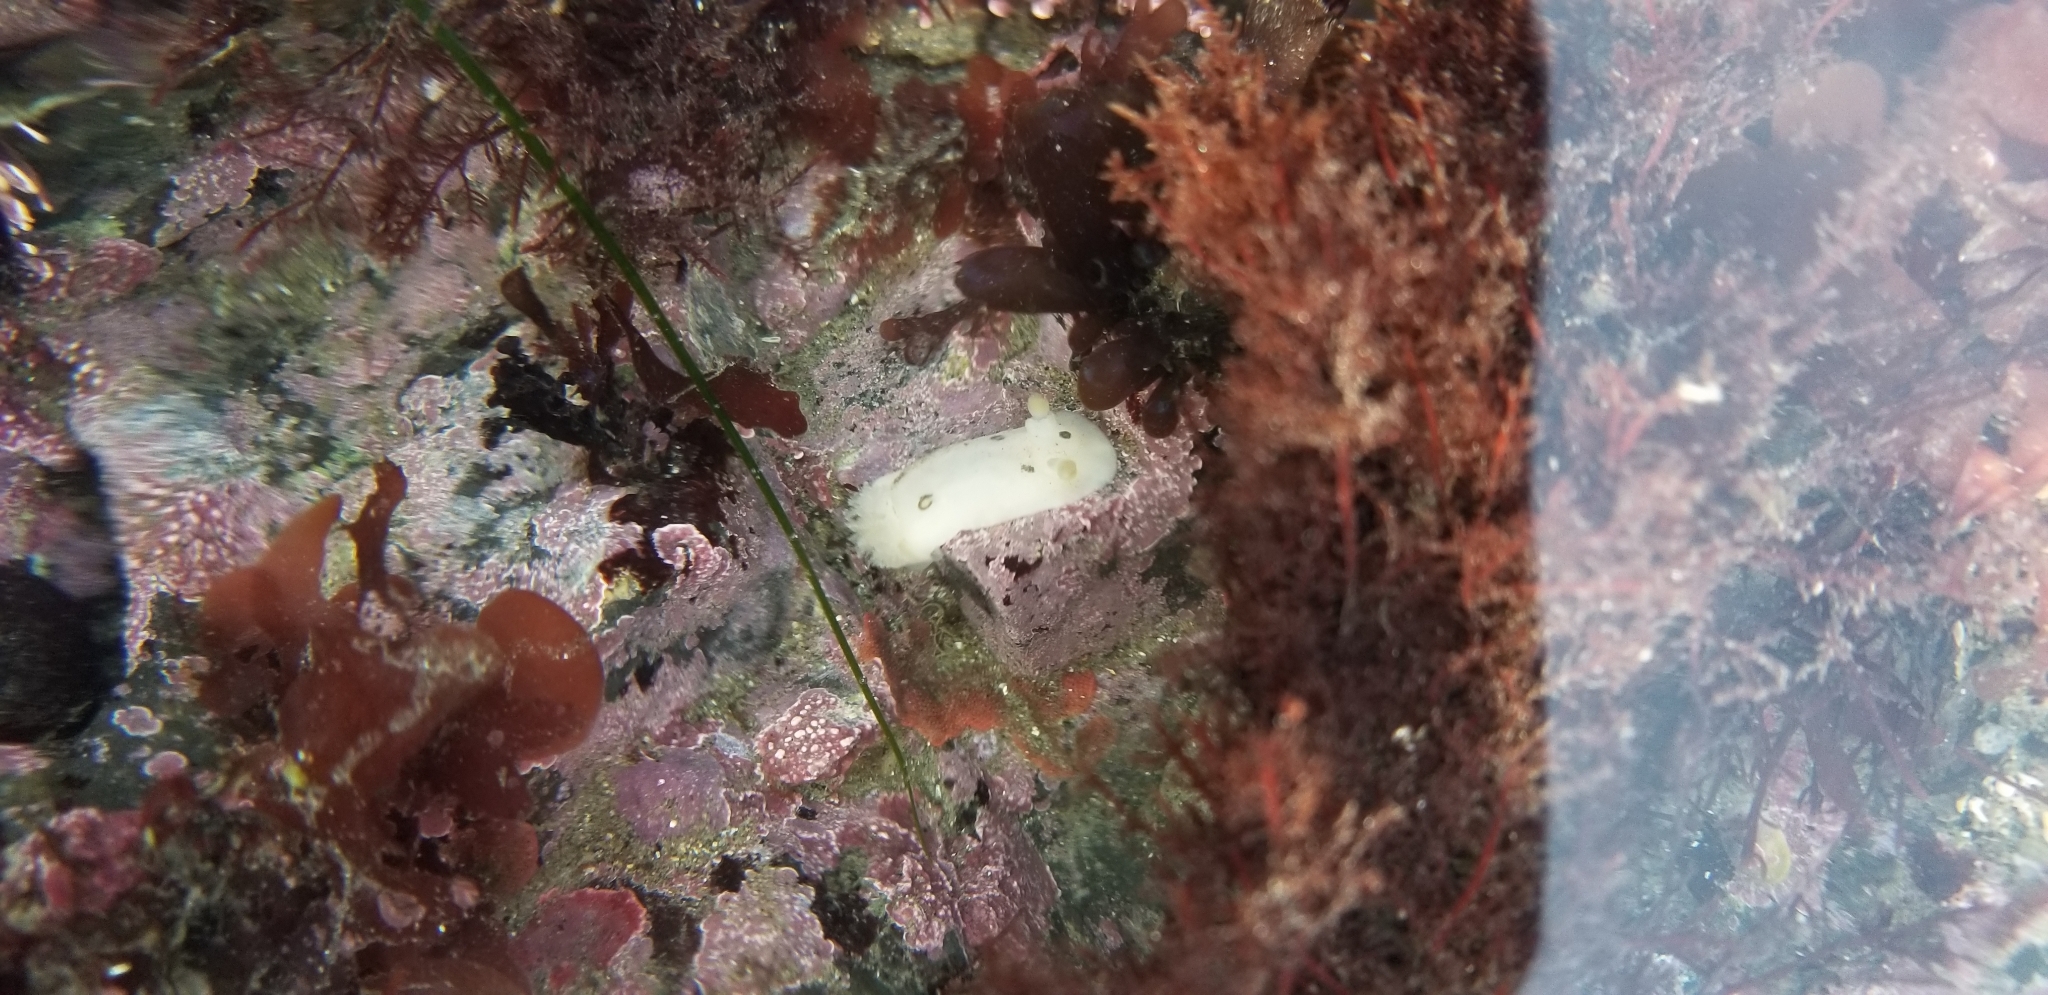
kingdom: Animalia
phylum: Mollusca
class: Gastropoda
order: Nudibranchia
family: Discodorididae
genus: Diaulula
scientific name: Diaulula sandiegensis
